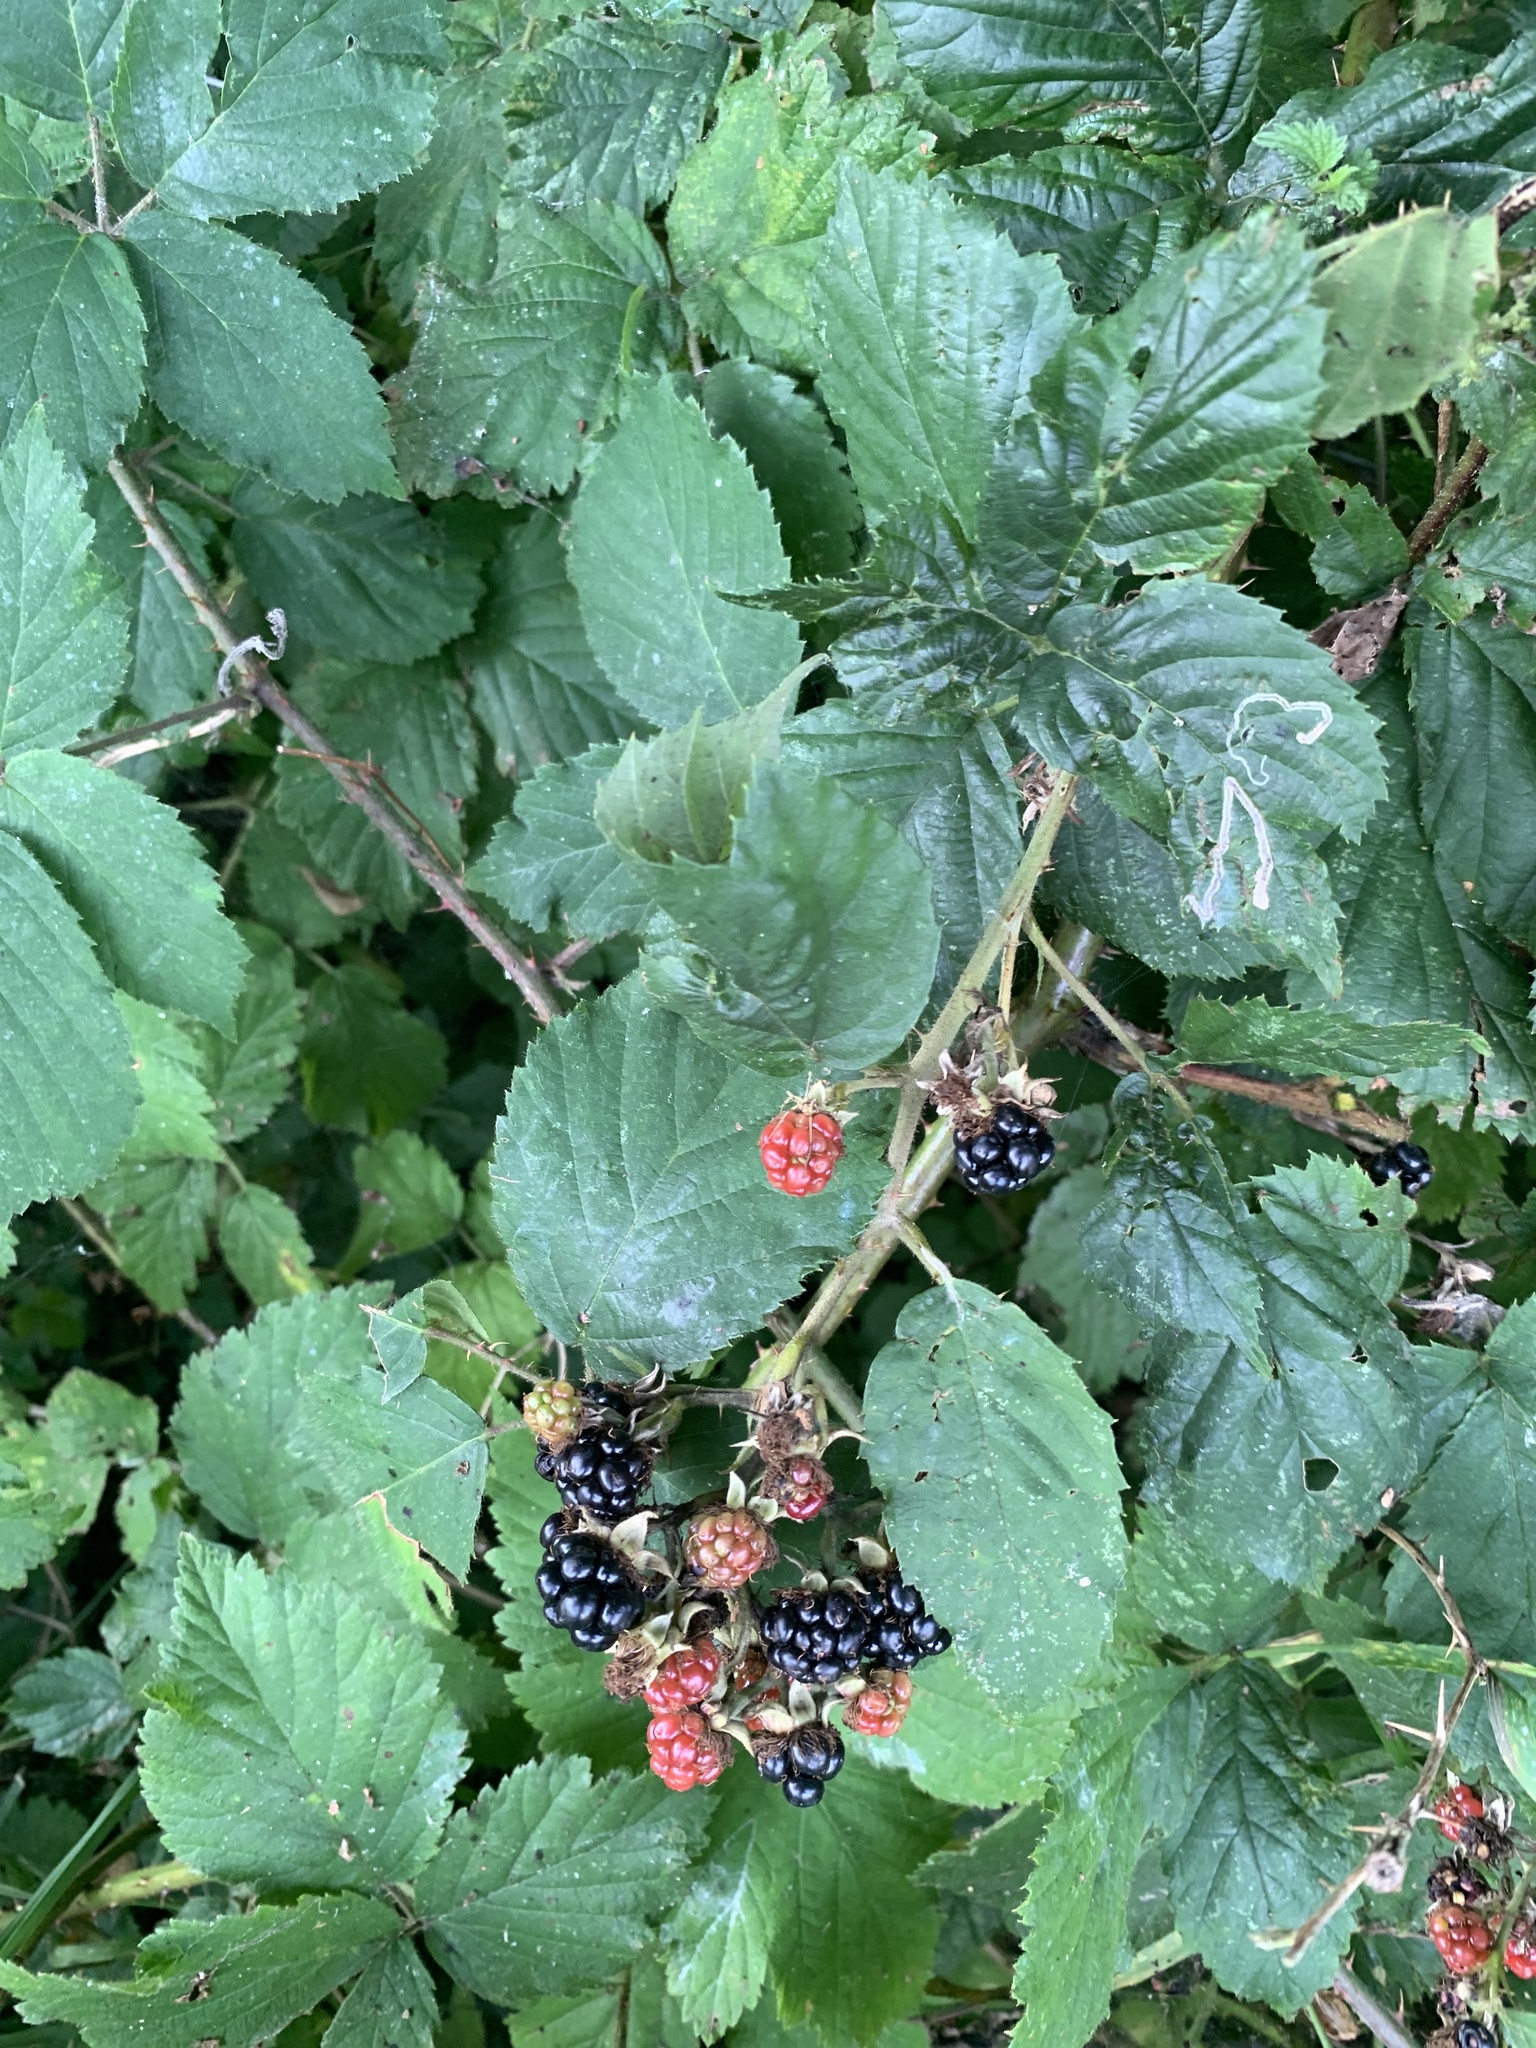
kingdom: Plantae
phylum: Tracheophyta
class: Magnoliopsida
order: Rosales
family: Rosaceae
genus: Rubus
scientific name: Rubus armeniacus
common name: Himalayan blackberry
